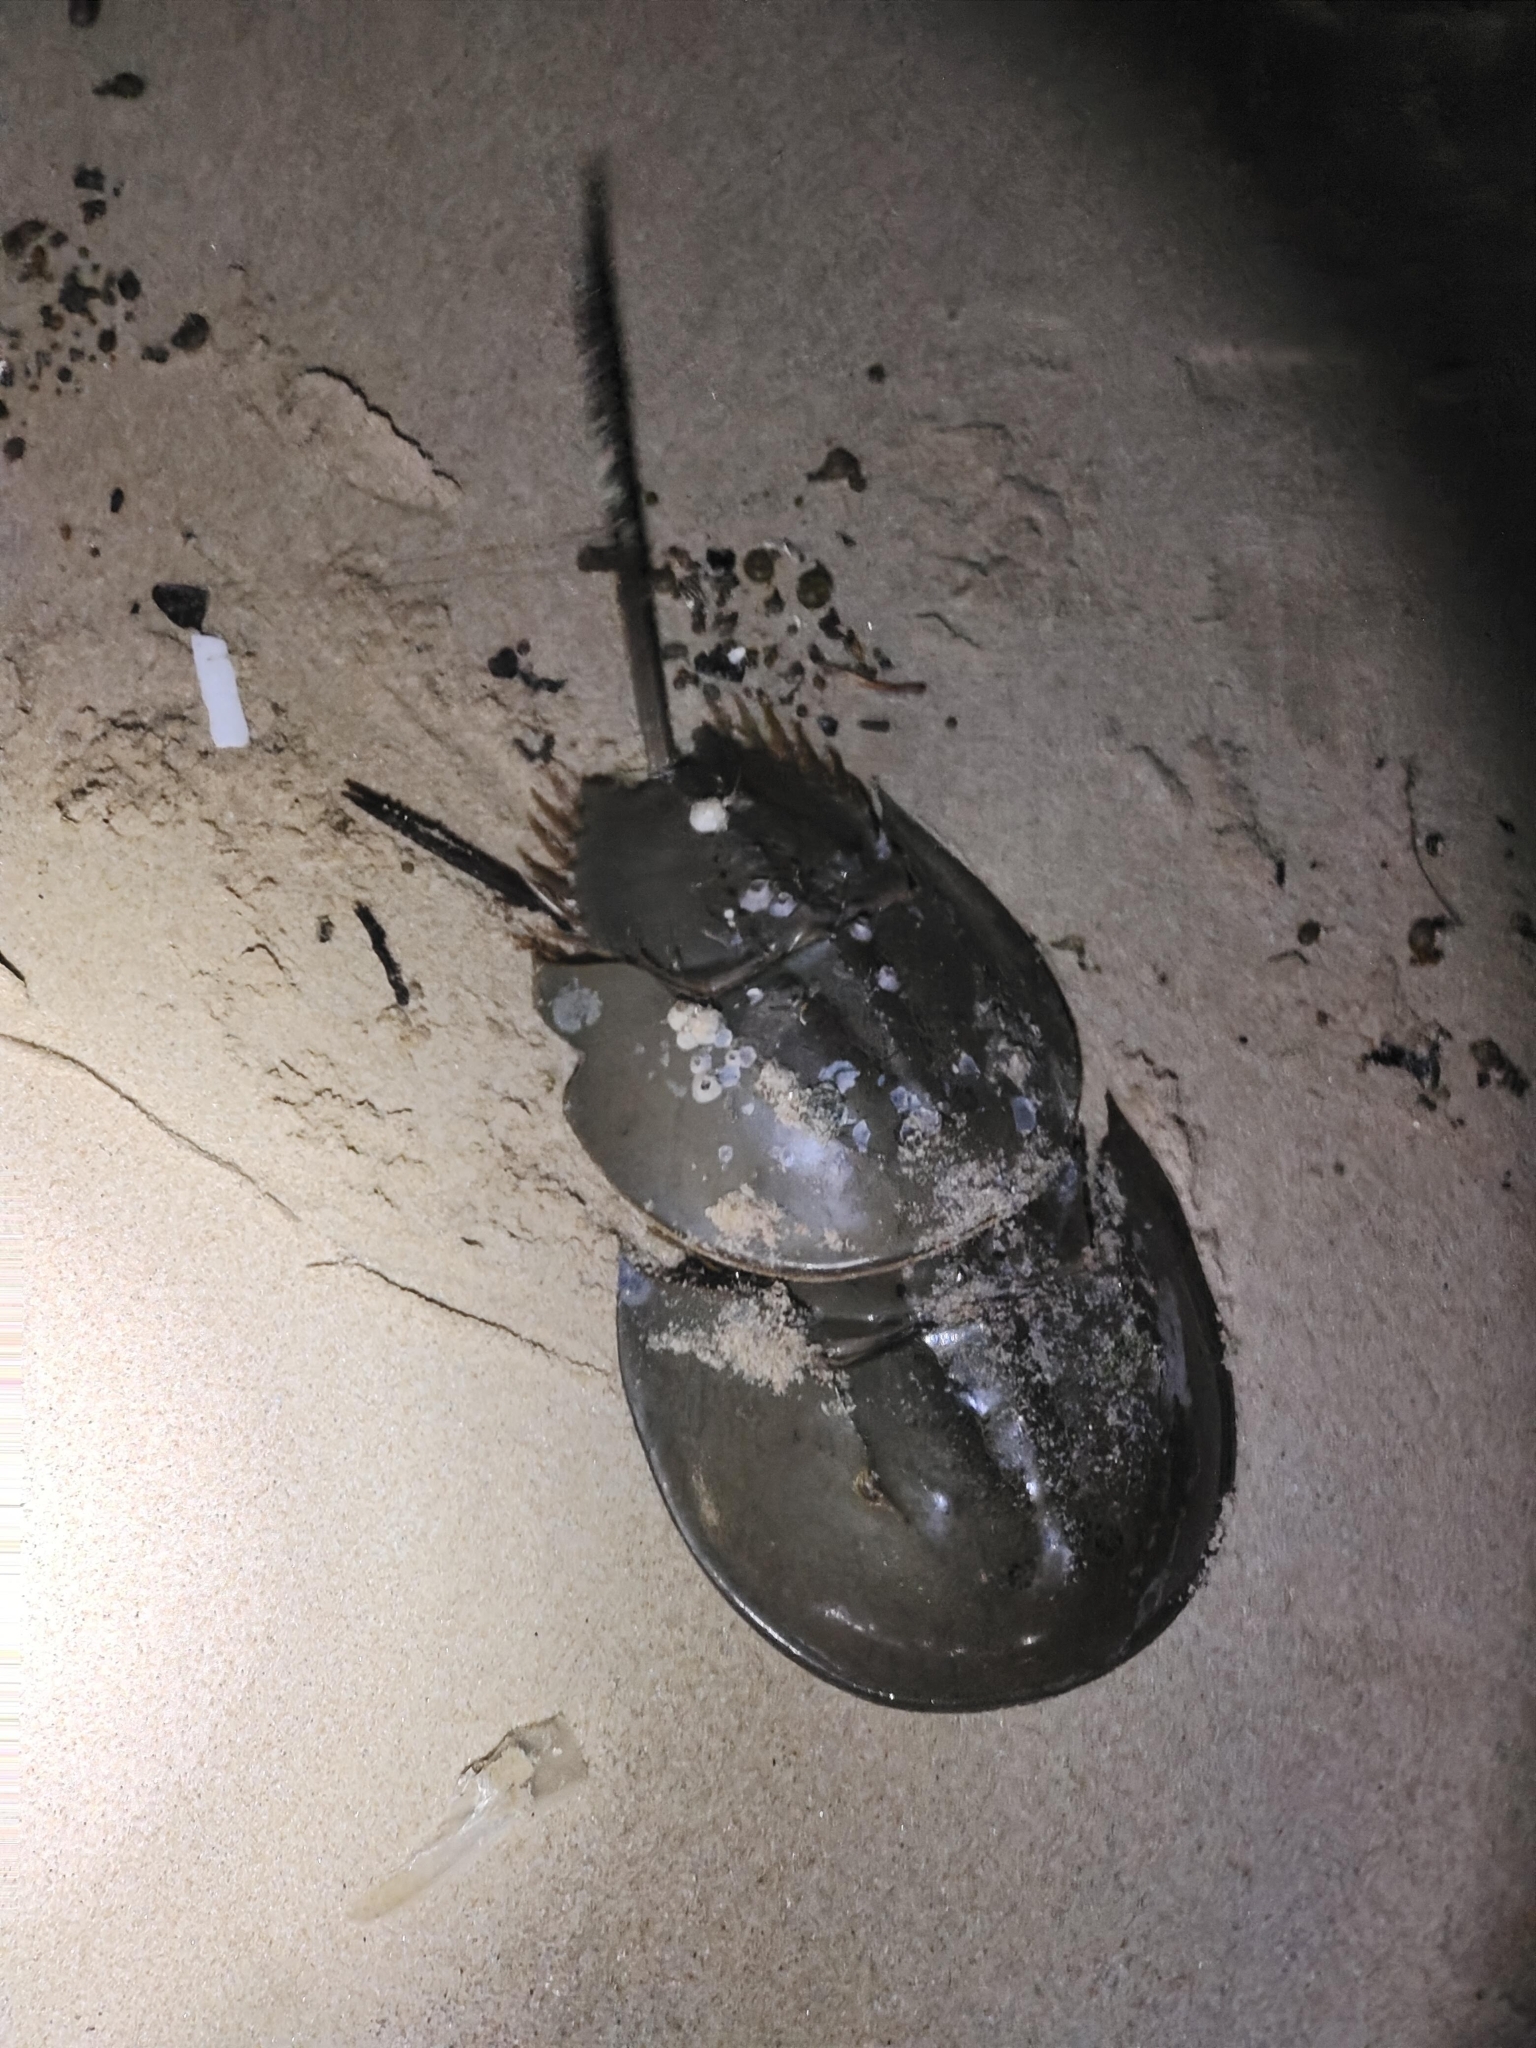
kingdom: Animalia
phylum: Arthropoda
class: Merostomata
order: Xiphosurida
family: Limulidae
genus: Tachypleus
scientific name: Tachypleus gigas
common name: Coastal horseshoe crab
